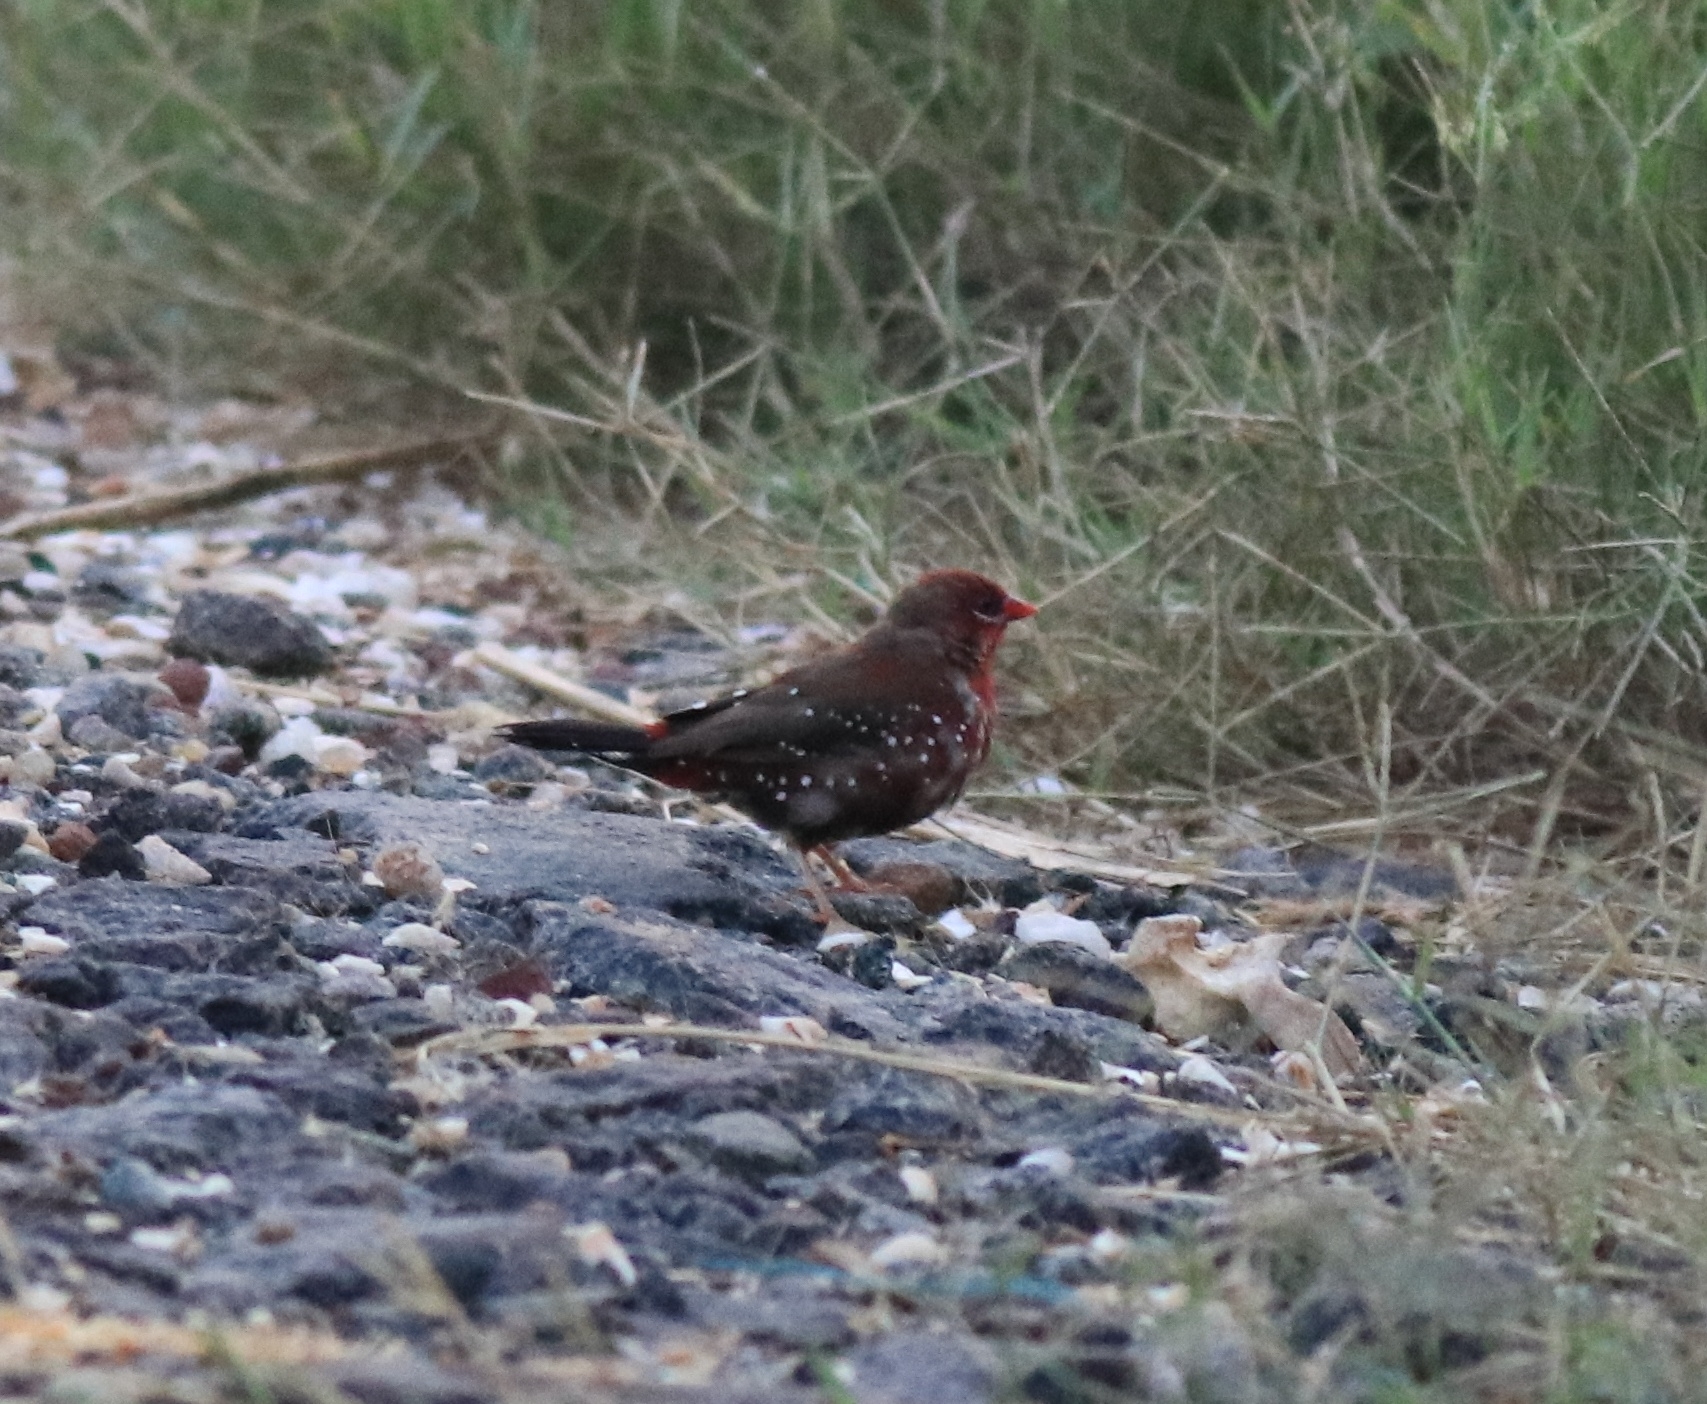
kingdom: Animalia
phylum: Chordata
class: Aves
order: Passeriformes
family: Estrildidae
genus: Amandava
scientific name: Amandava amandava
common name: Red avadavat
